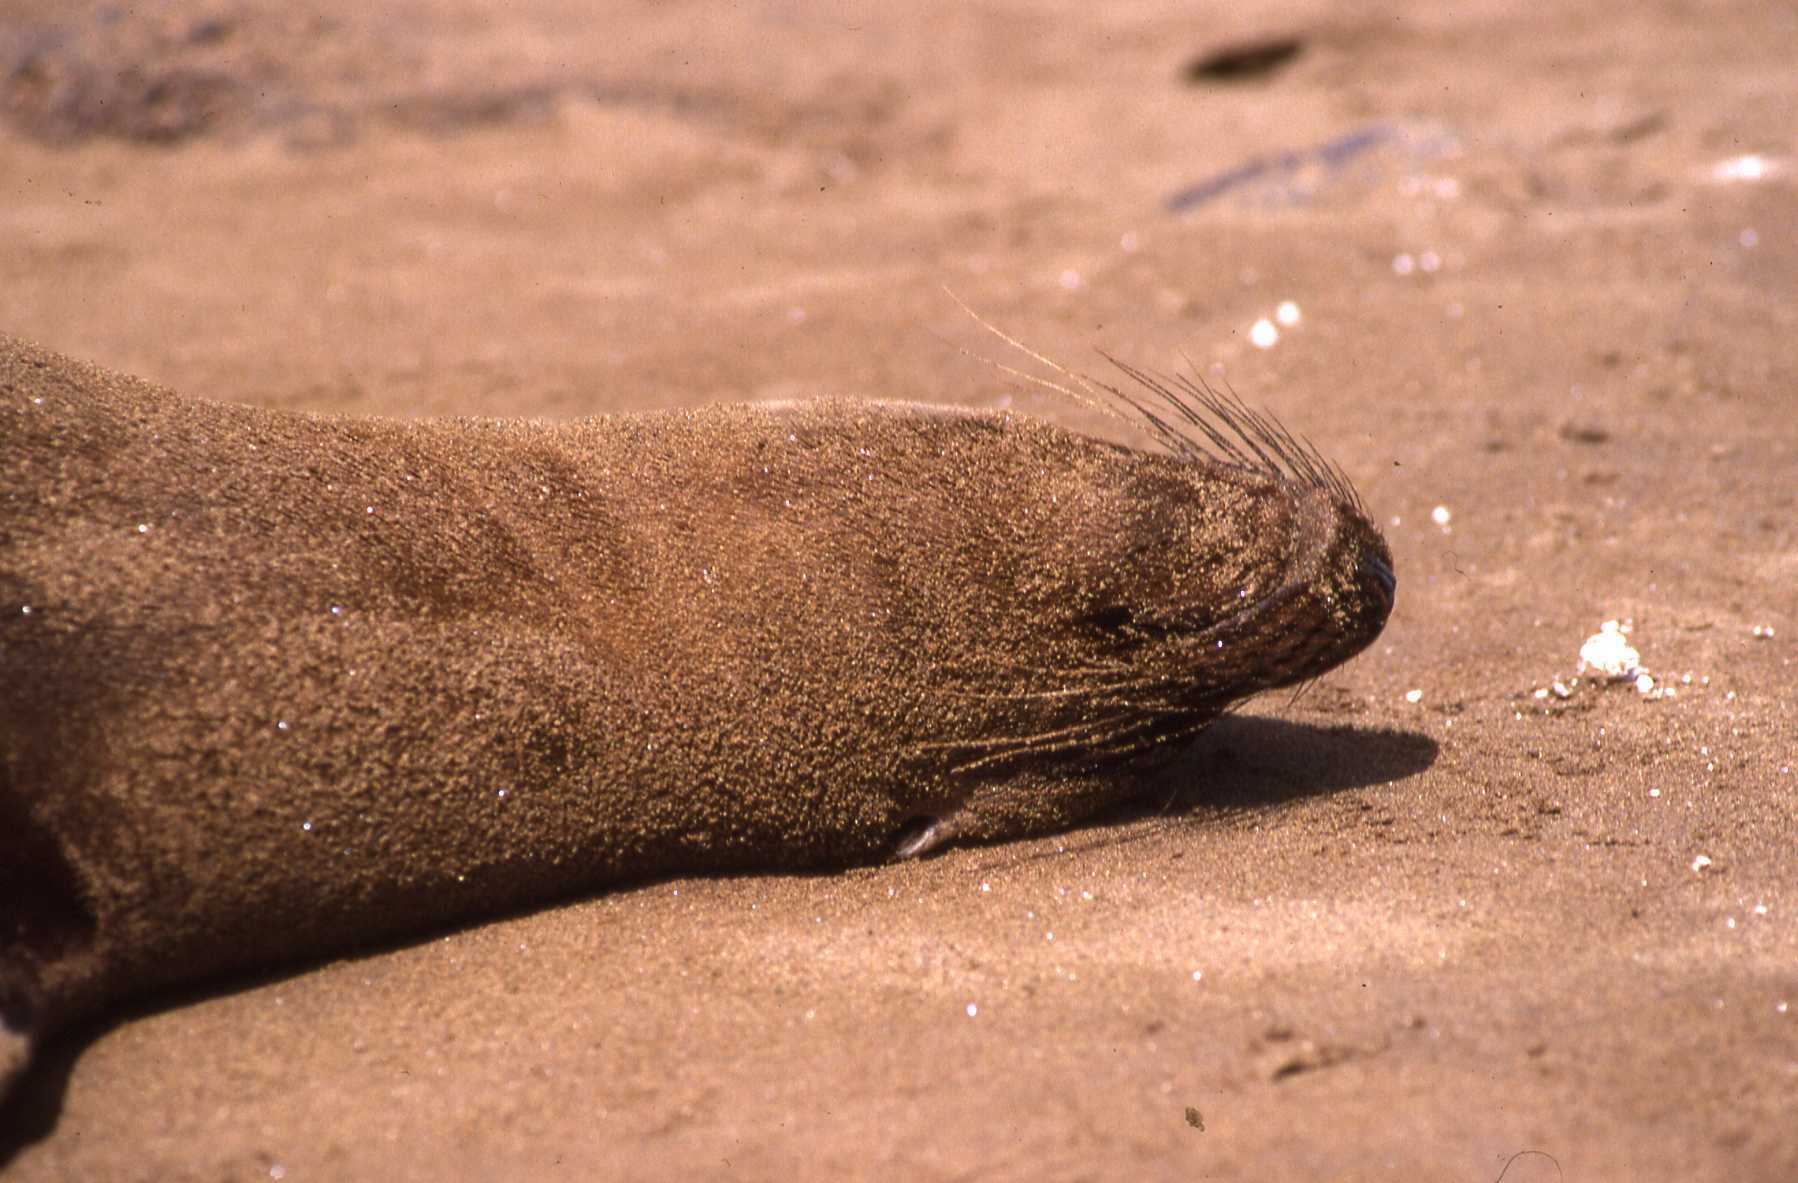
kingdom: Animalia
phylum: Chordata
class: Mammalia
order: Carnivora
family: Otariidae
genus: Zalophus
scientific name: Zalophus wollebaeki
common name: Galapagos sea lion
